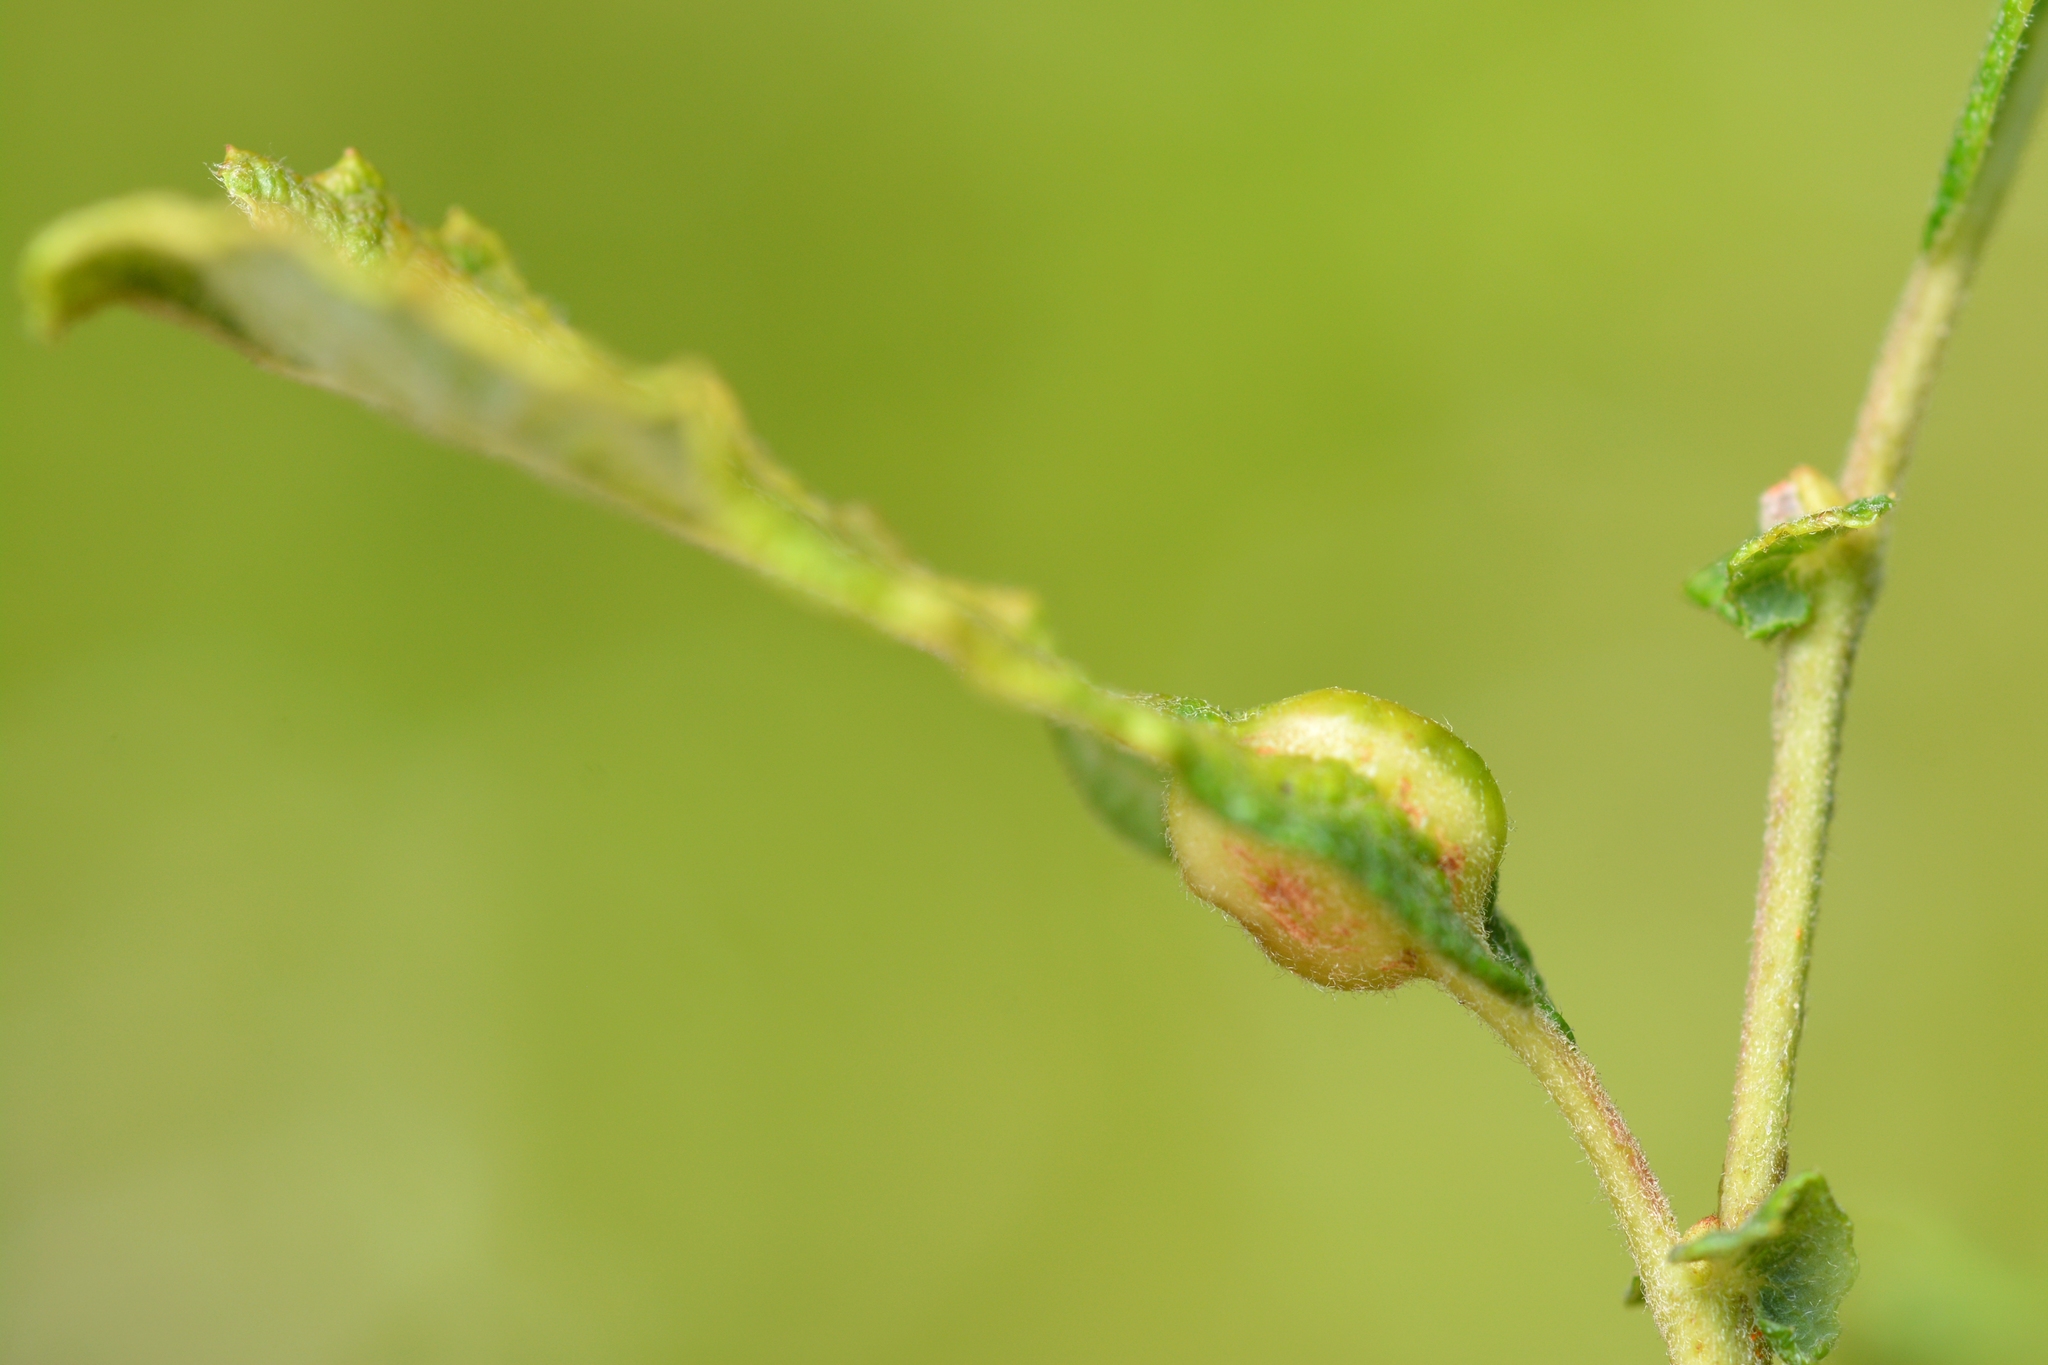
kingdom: Animalia
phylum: Arthropoda
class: Insecta
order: Diptera
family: Cecidomyiidae
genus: Iteomyia
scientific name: Iteomyia major
